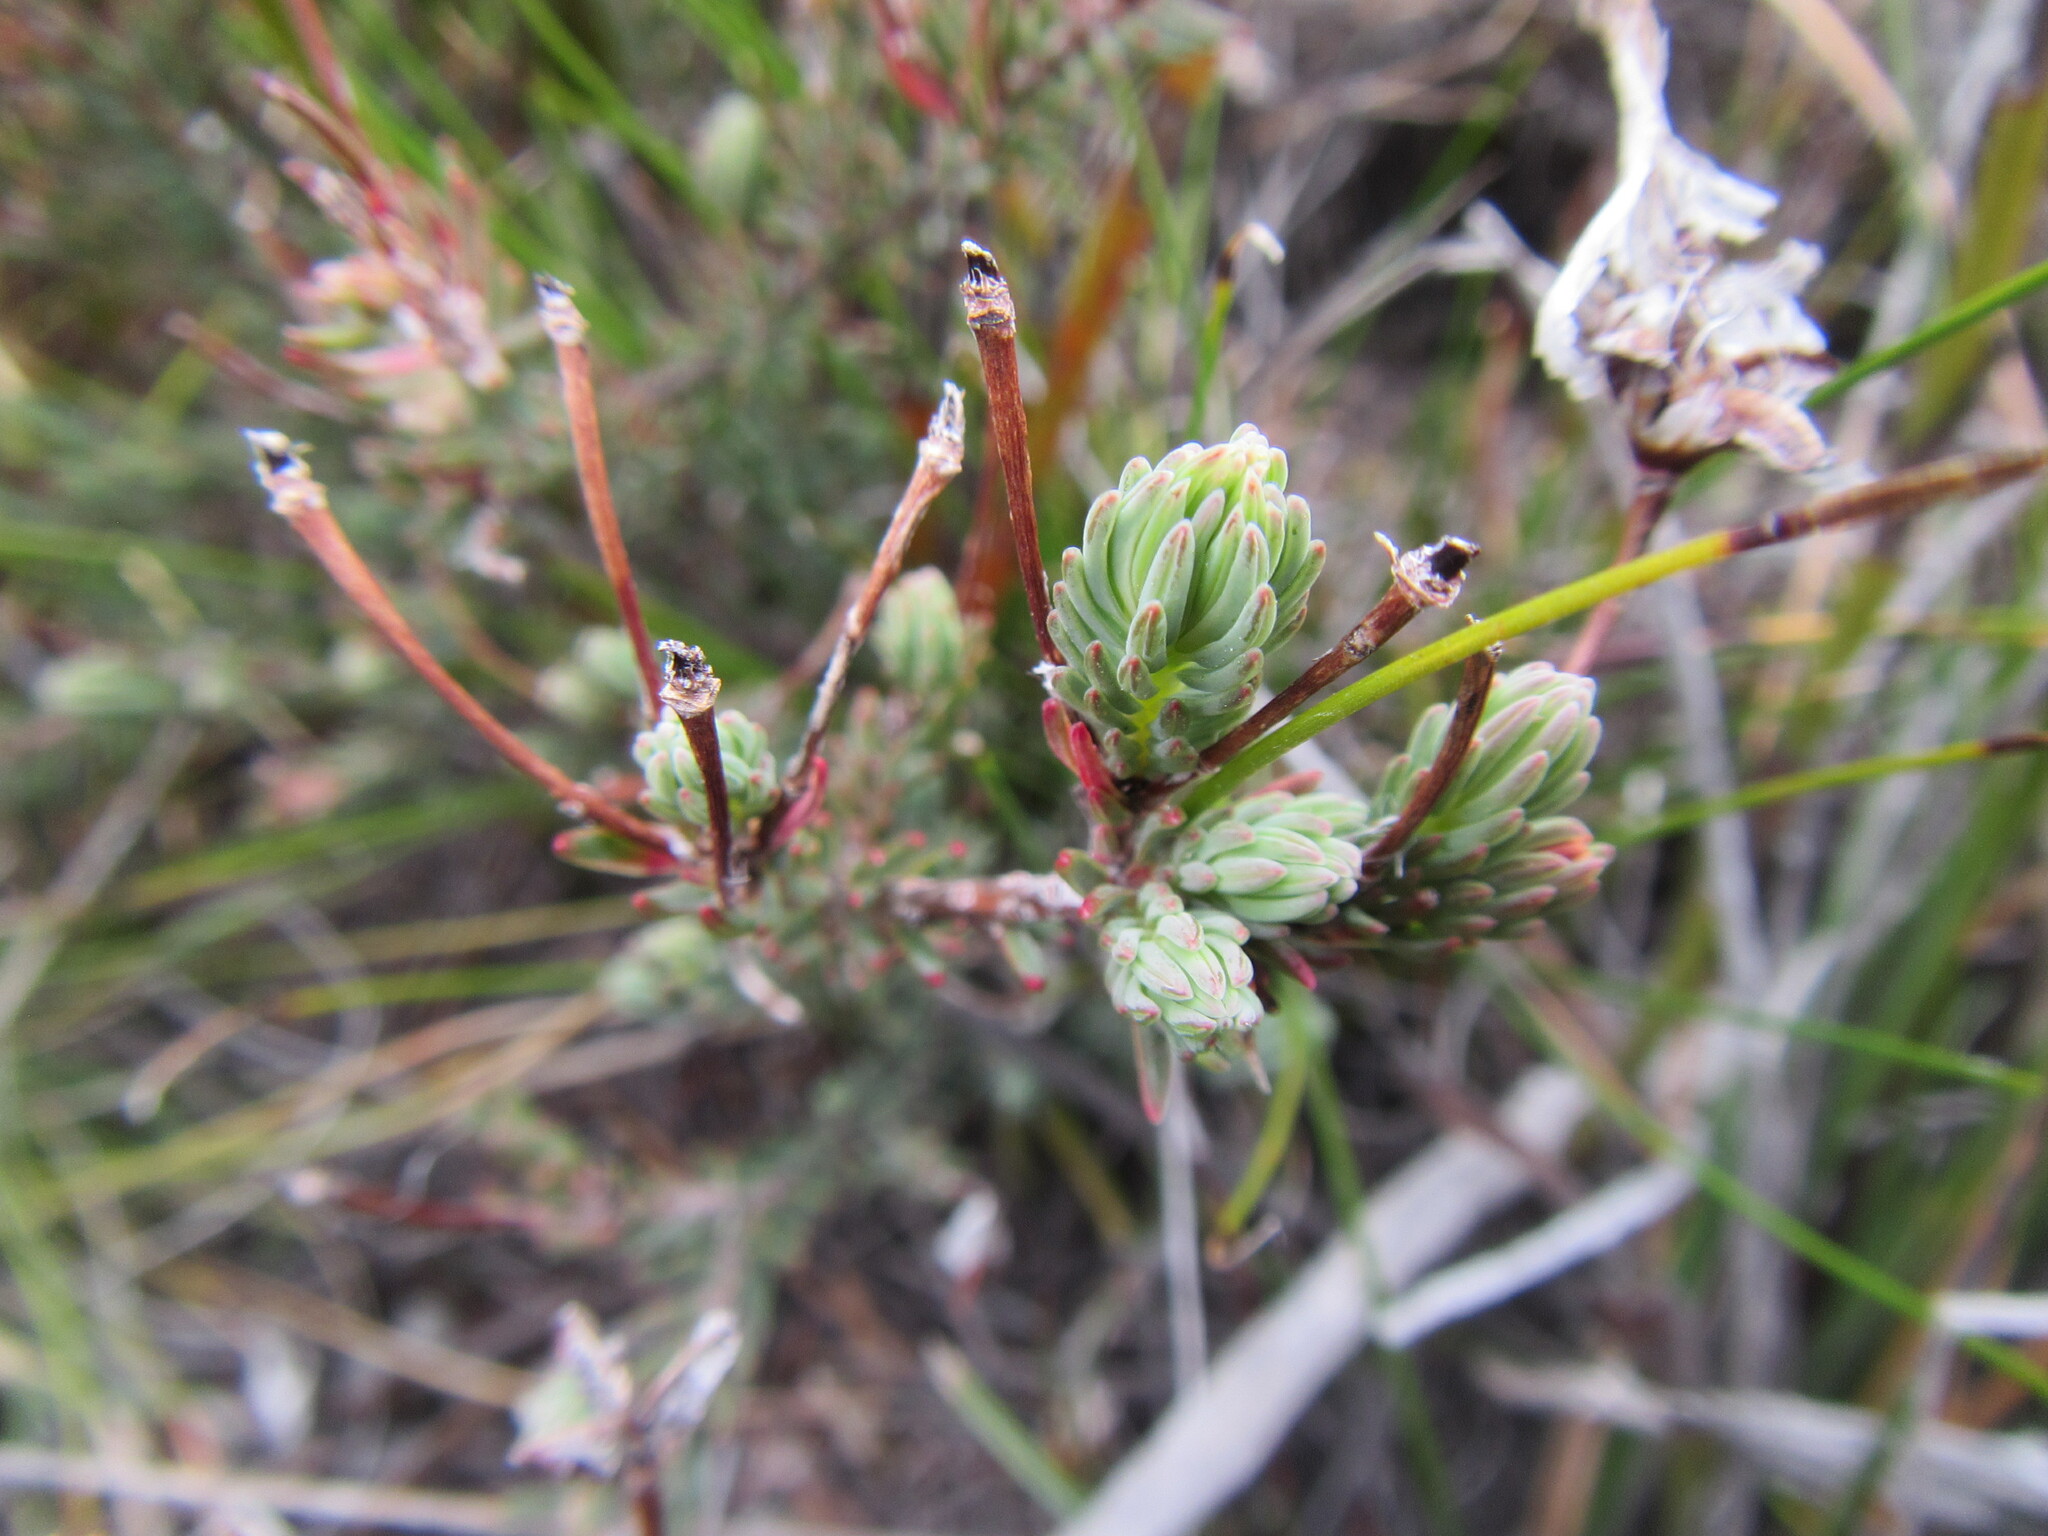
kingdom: Plantae
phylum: Tracheophyta
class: Magnoliopsida
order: Ericales
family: Ericaceae
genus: Erica
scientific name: Erica junonia
